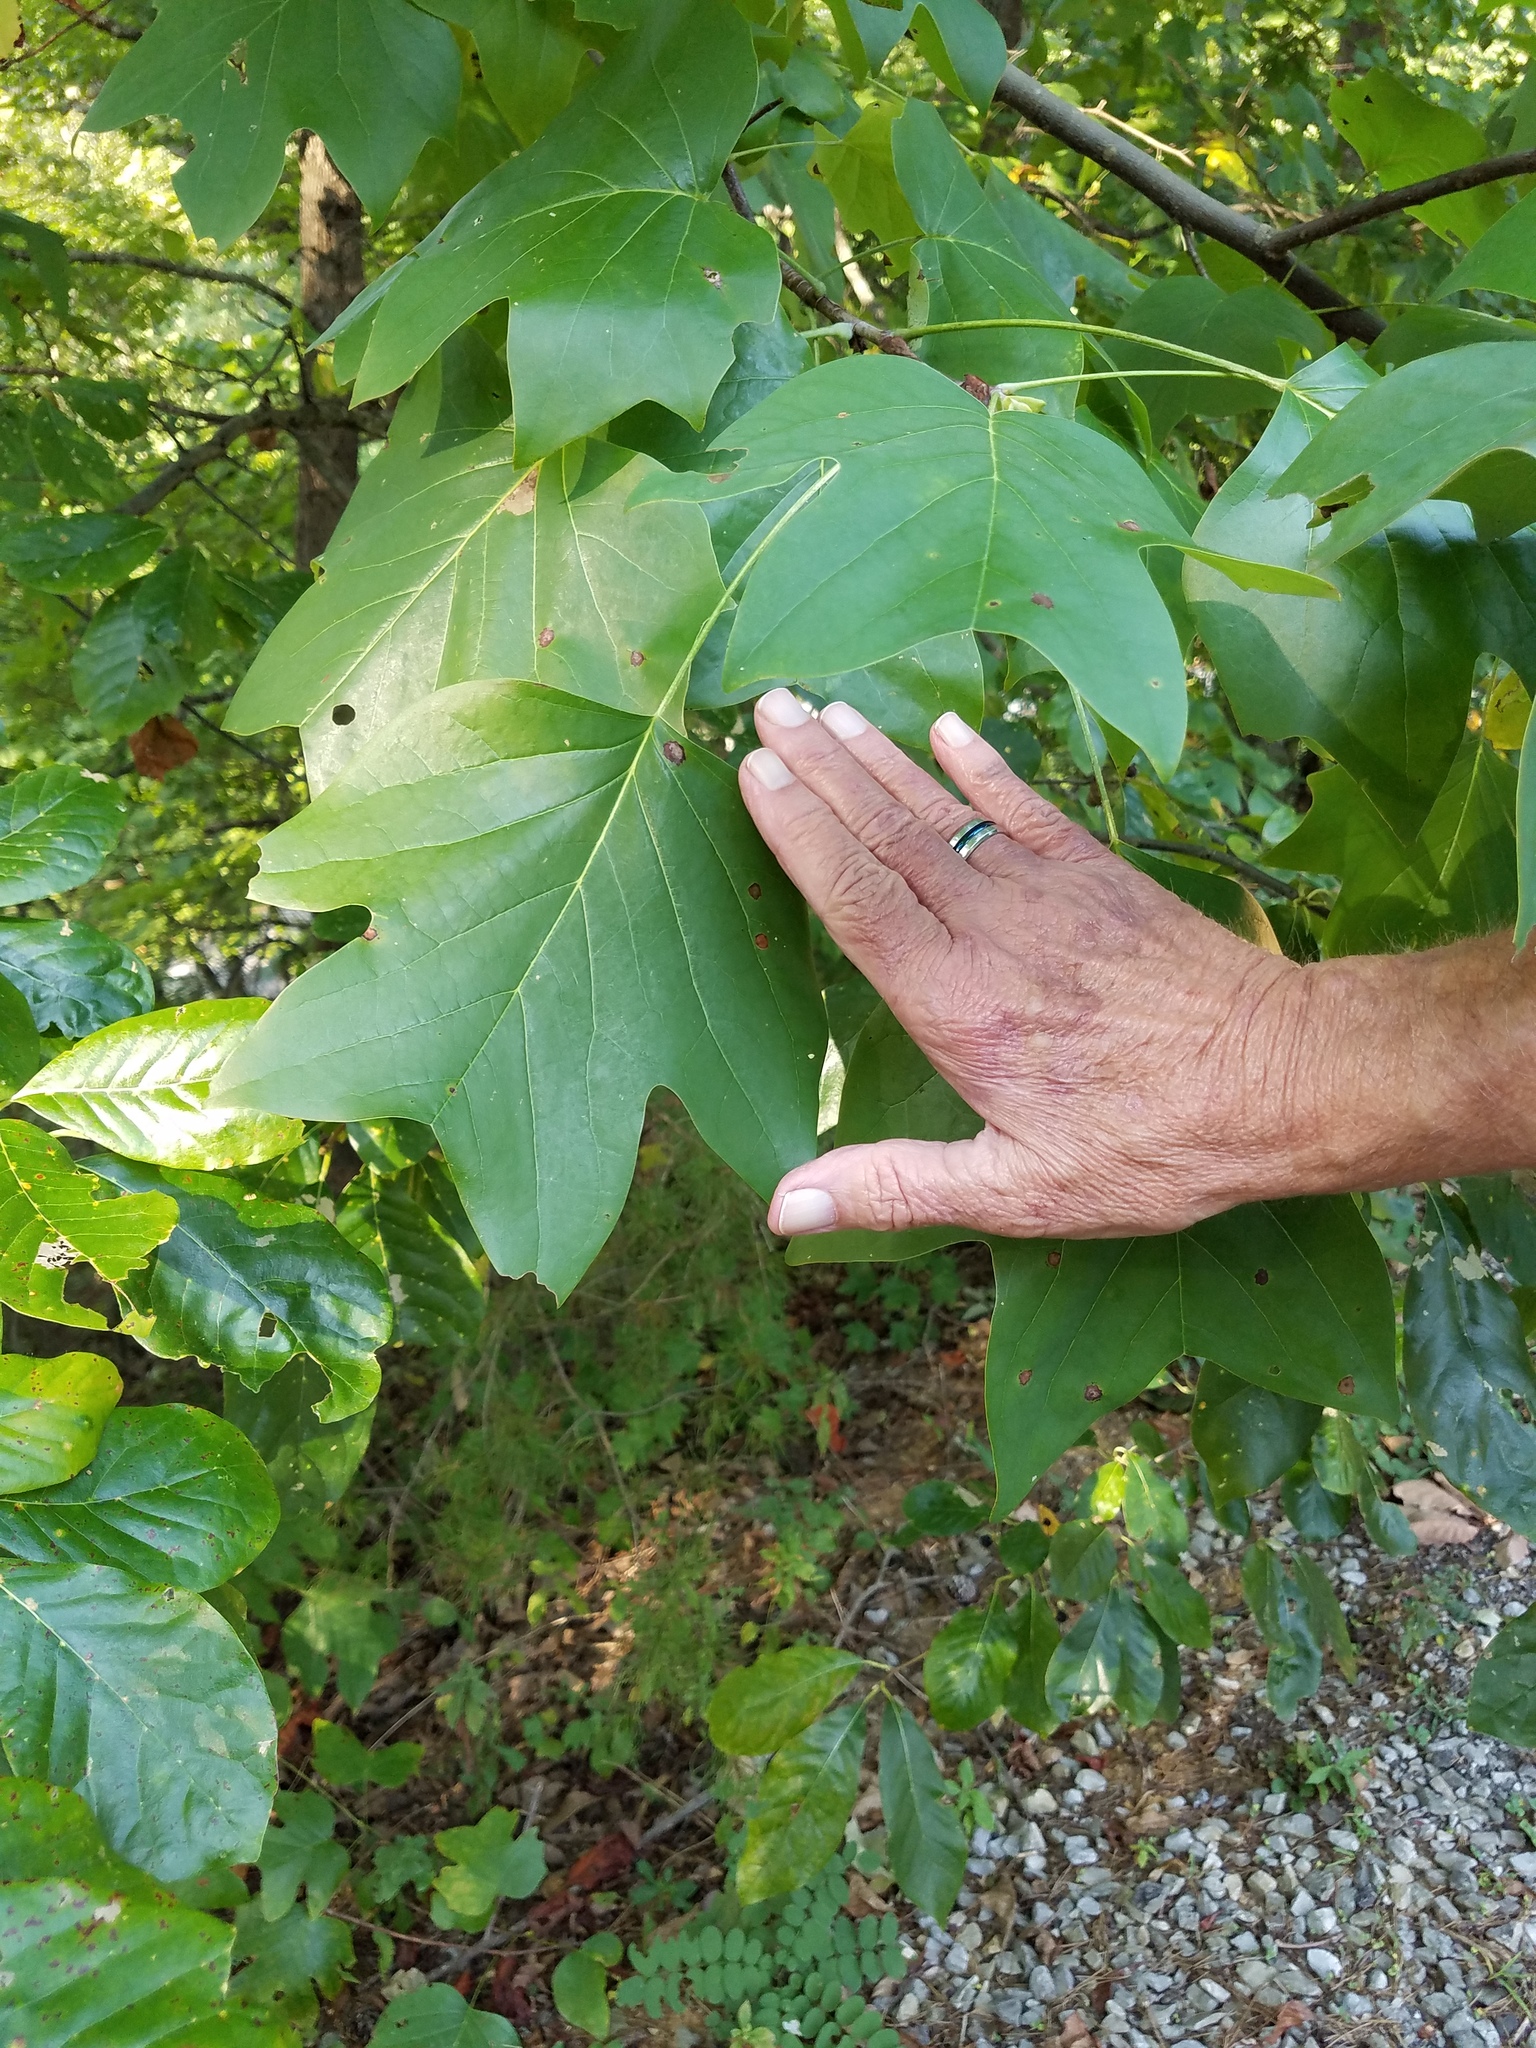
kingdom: Plantae
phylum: Tracheophyta
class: Magnoliopsida
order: Magnoliales
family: Magnoliaceae
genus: Liriodendron
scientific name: Liriodendron tulipifera
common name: Tulip tree
